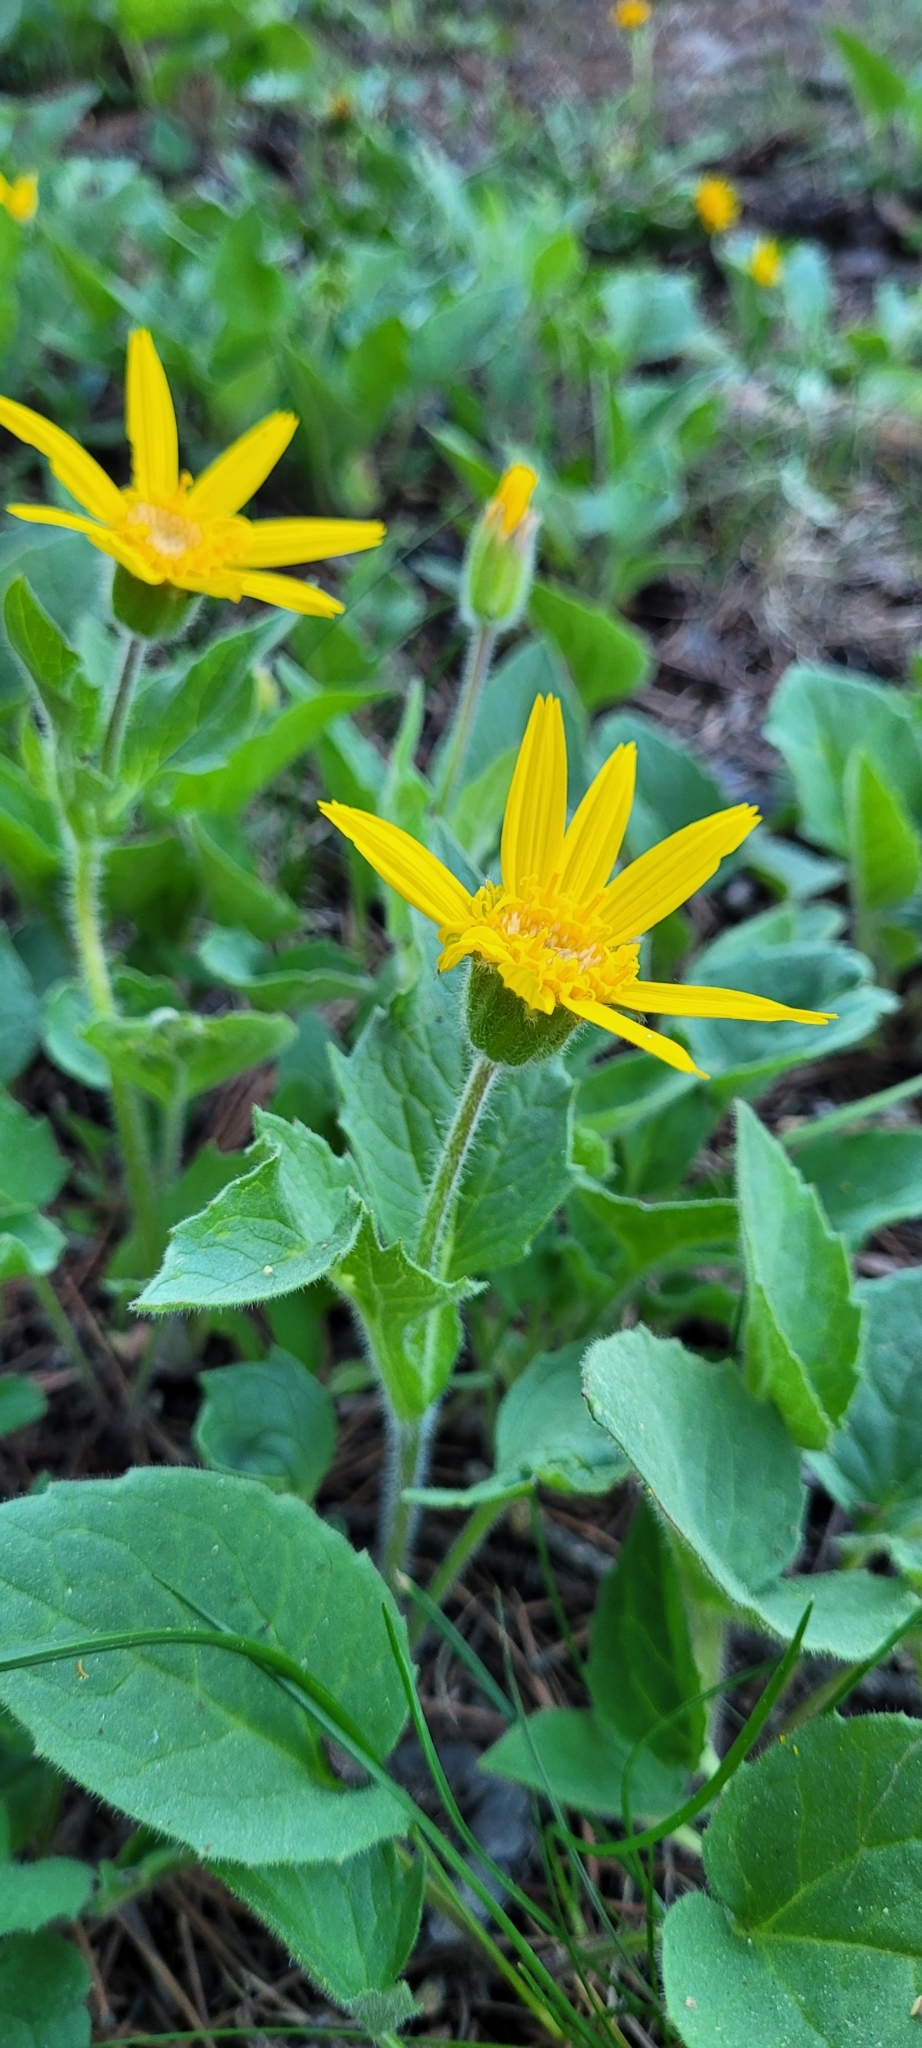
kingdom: Plantae
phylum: Tracheophyta
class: Magnoliopsida
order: Asterales
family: Asteraceae
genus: Arnica
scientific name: Arnica cordifolia
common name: Heart-leaf arnica
